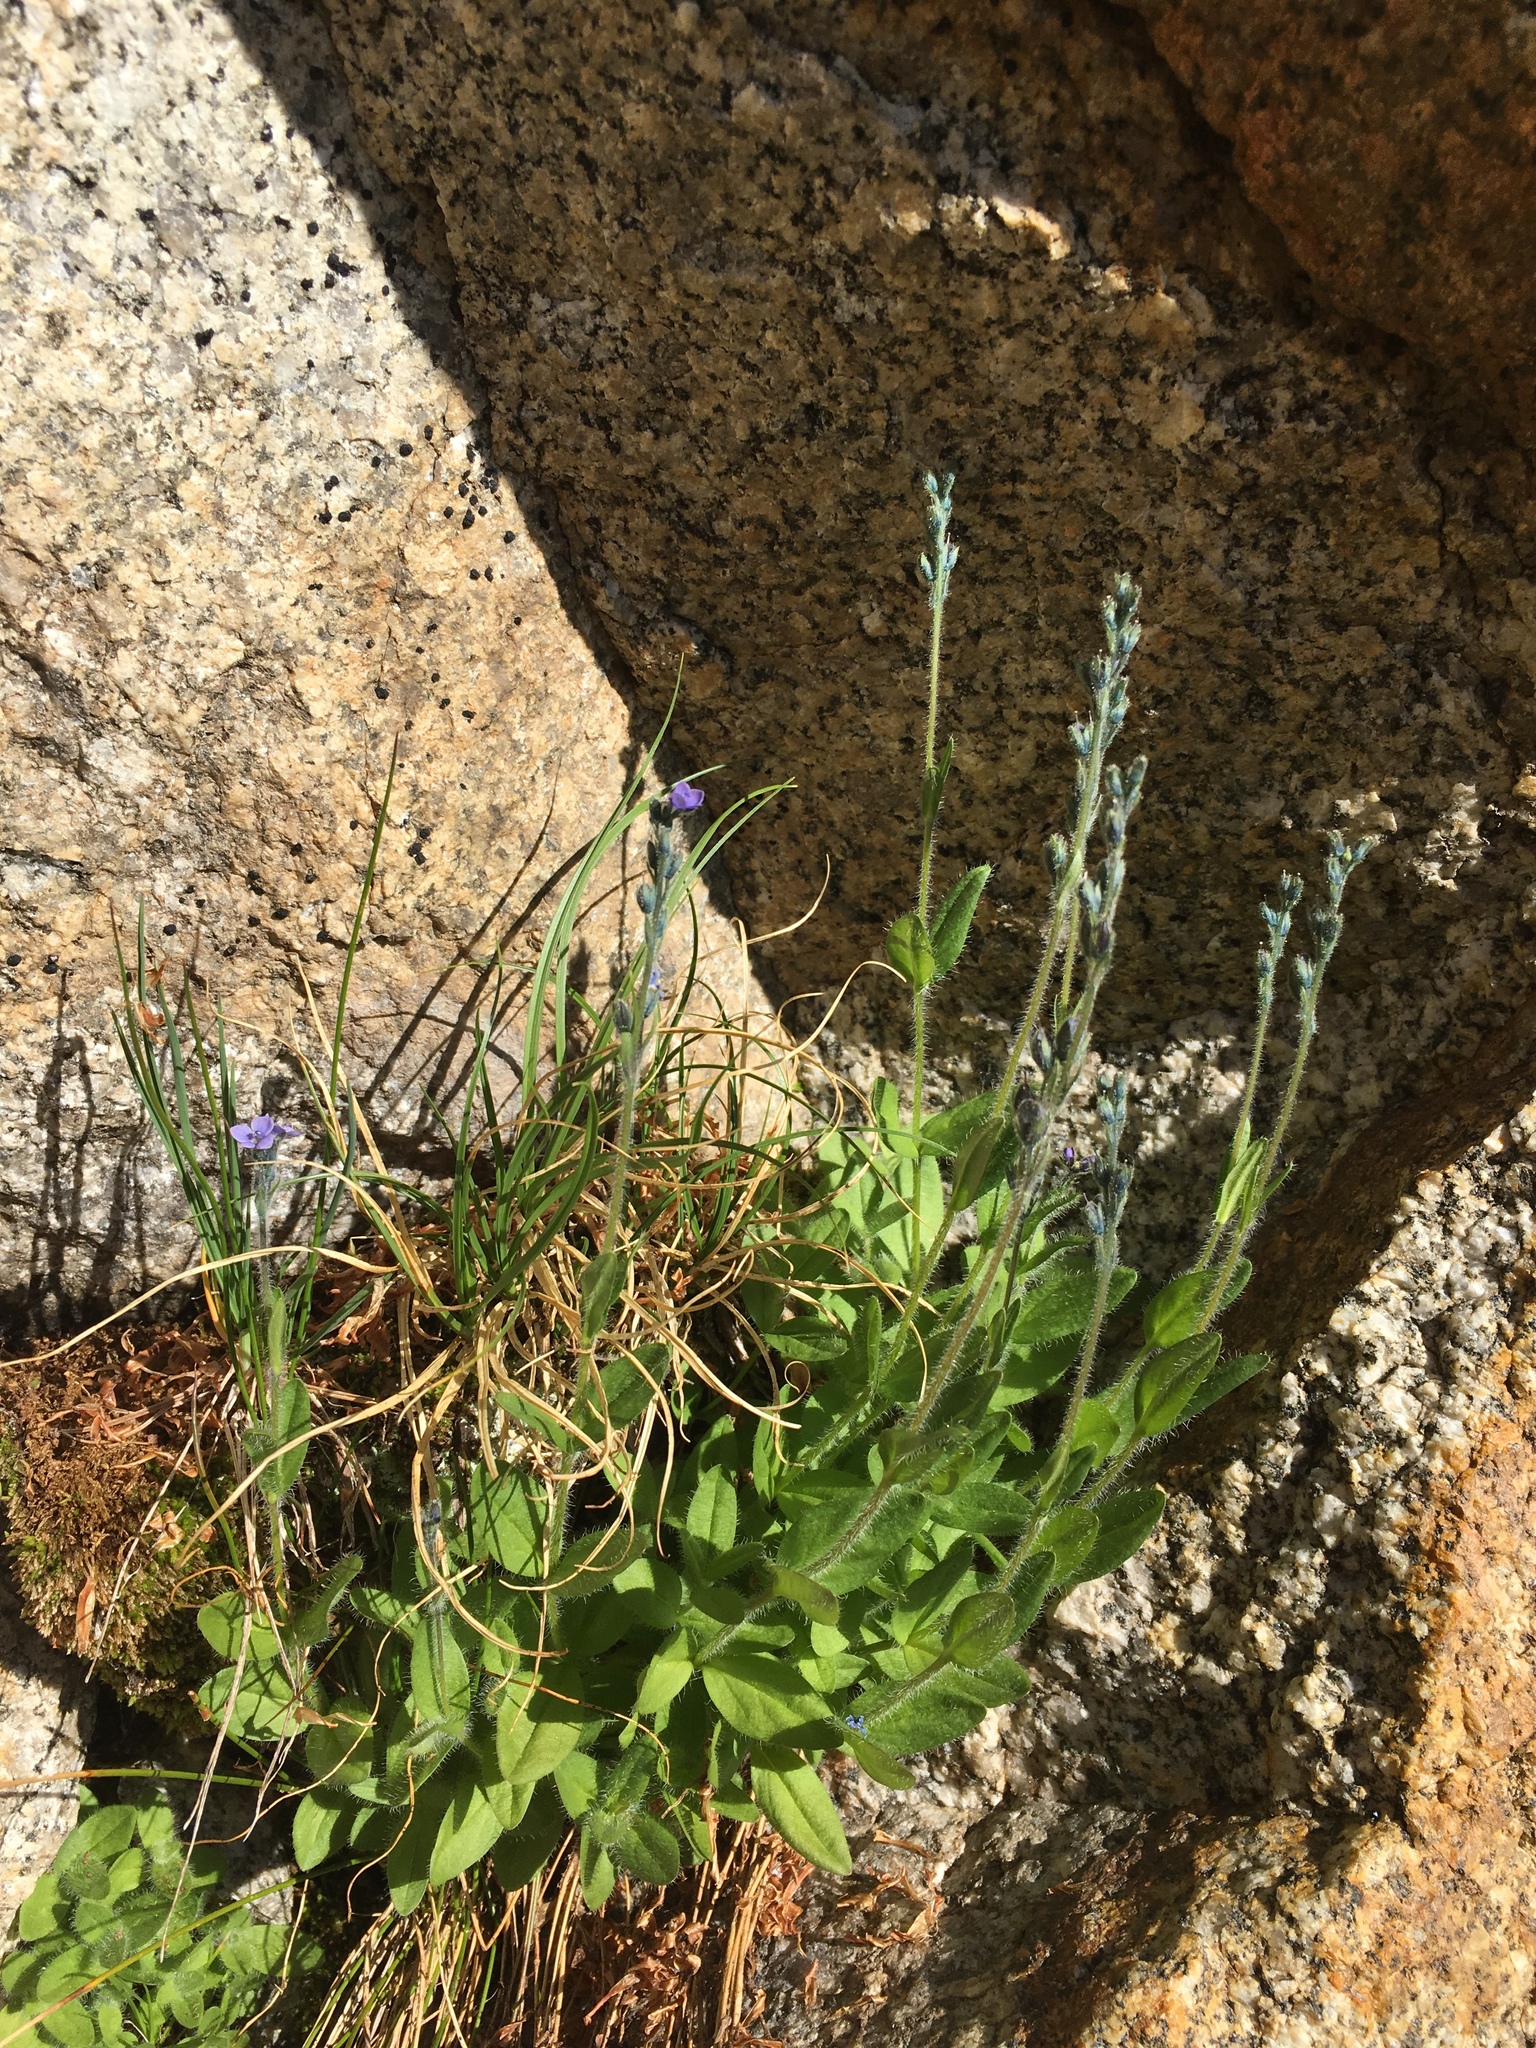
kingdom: Plantae
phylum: Tracheophyta
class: Magnoliopsida
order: Lamiales
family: Plantaginaceae
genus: Veronica
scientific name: Veronica wormskjoldii
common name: American alpine speedwell
